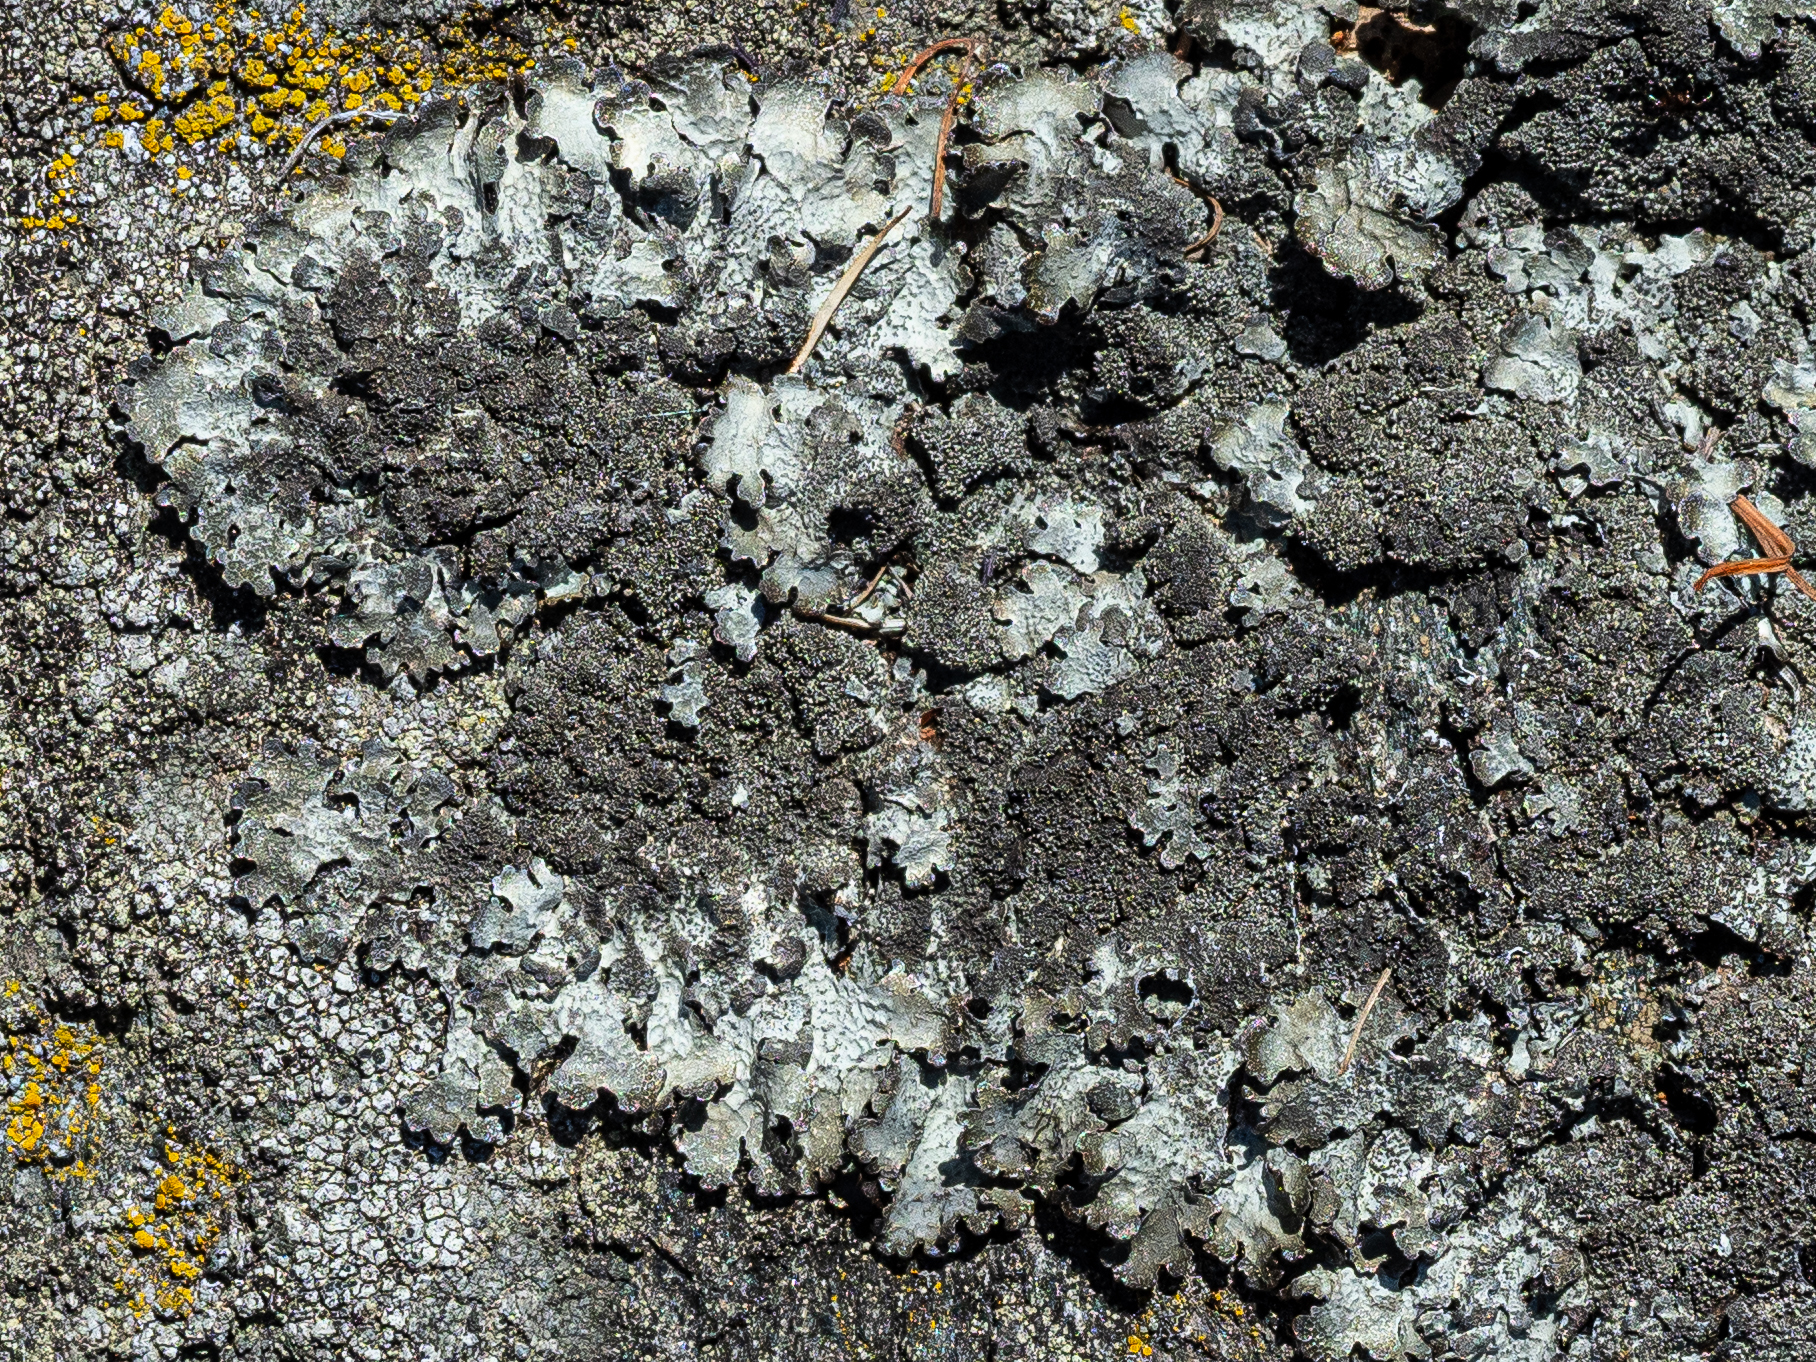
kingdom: Fungi
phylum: Ascomycota
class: Lecanoromycetes
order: Lecanorales
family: Parmeliaceae
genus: Parmelia
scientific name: Parmelia saxatilis
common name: Salted shield lichen
